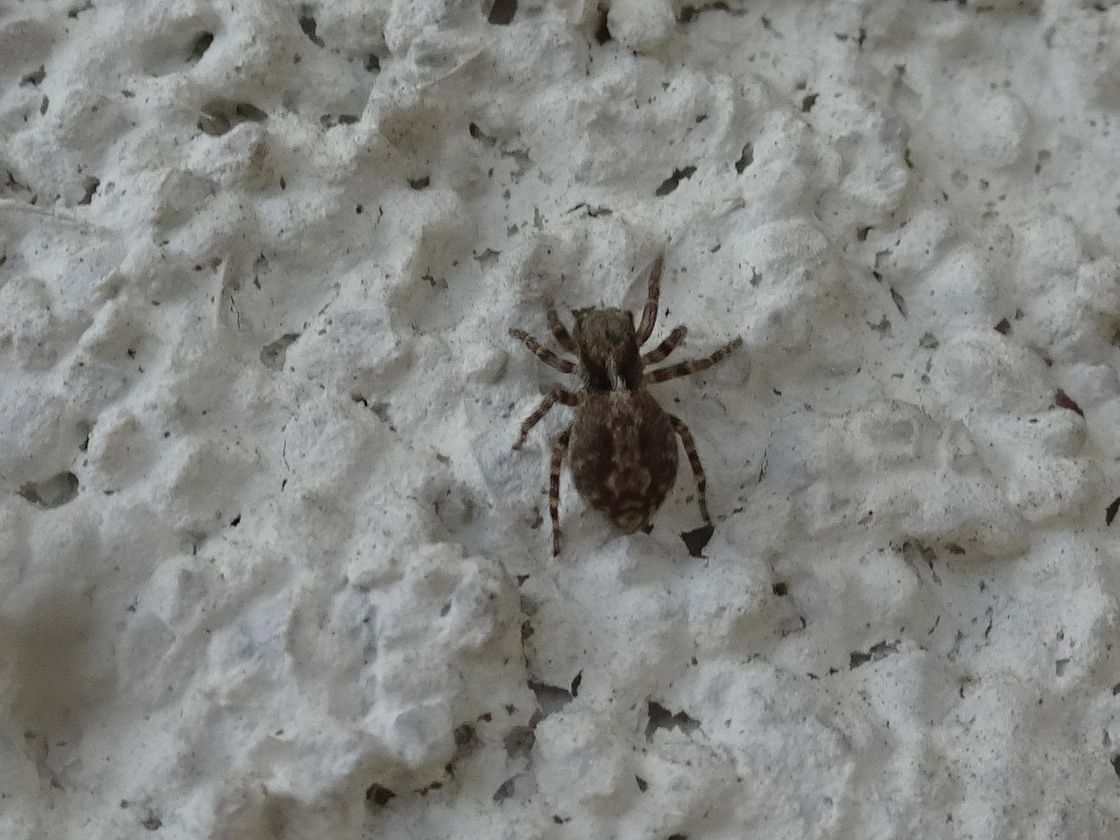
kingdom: Animalia
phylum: Arthropoda
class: Arachnida
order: Araneae
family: Salticidae
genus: Pseudeuophrys
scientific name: Pseudeuophrys lanigera
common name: Jumping spider
